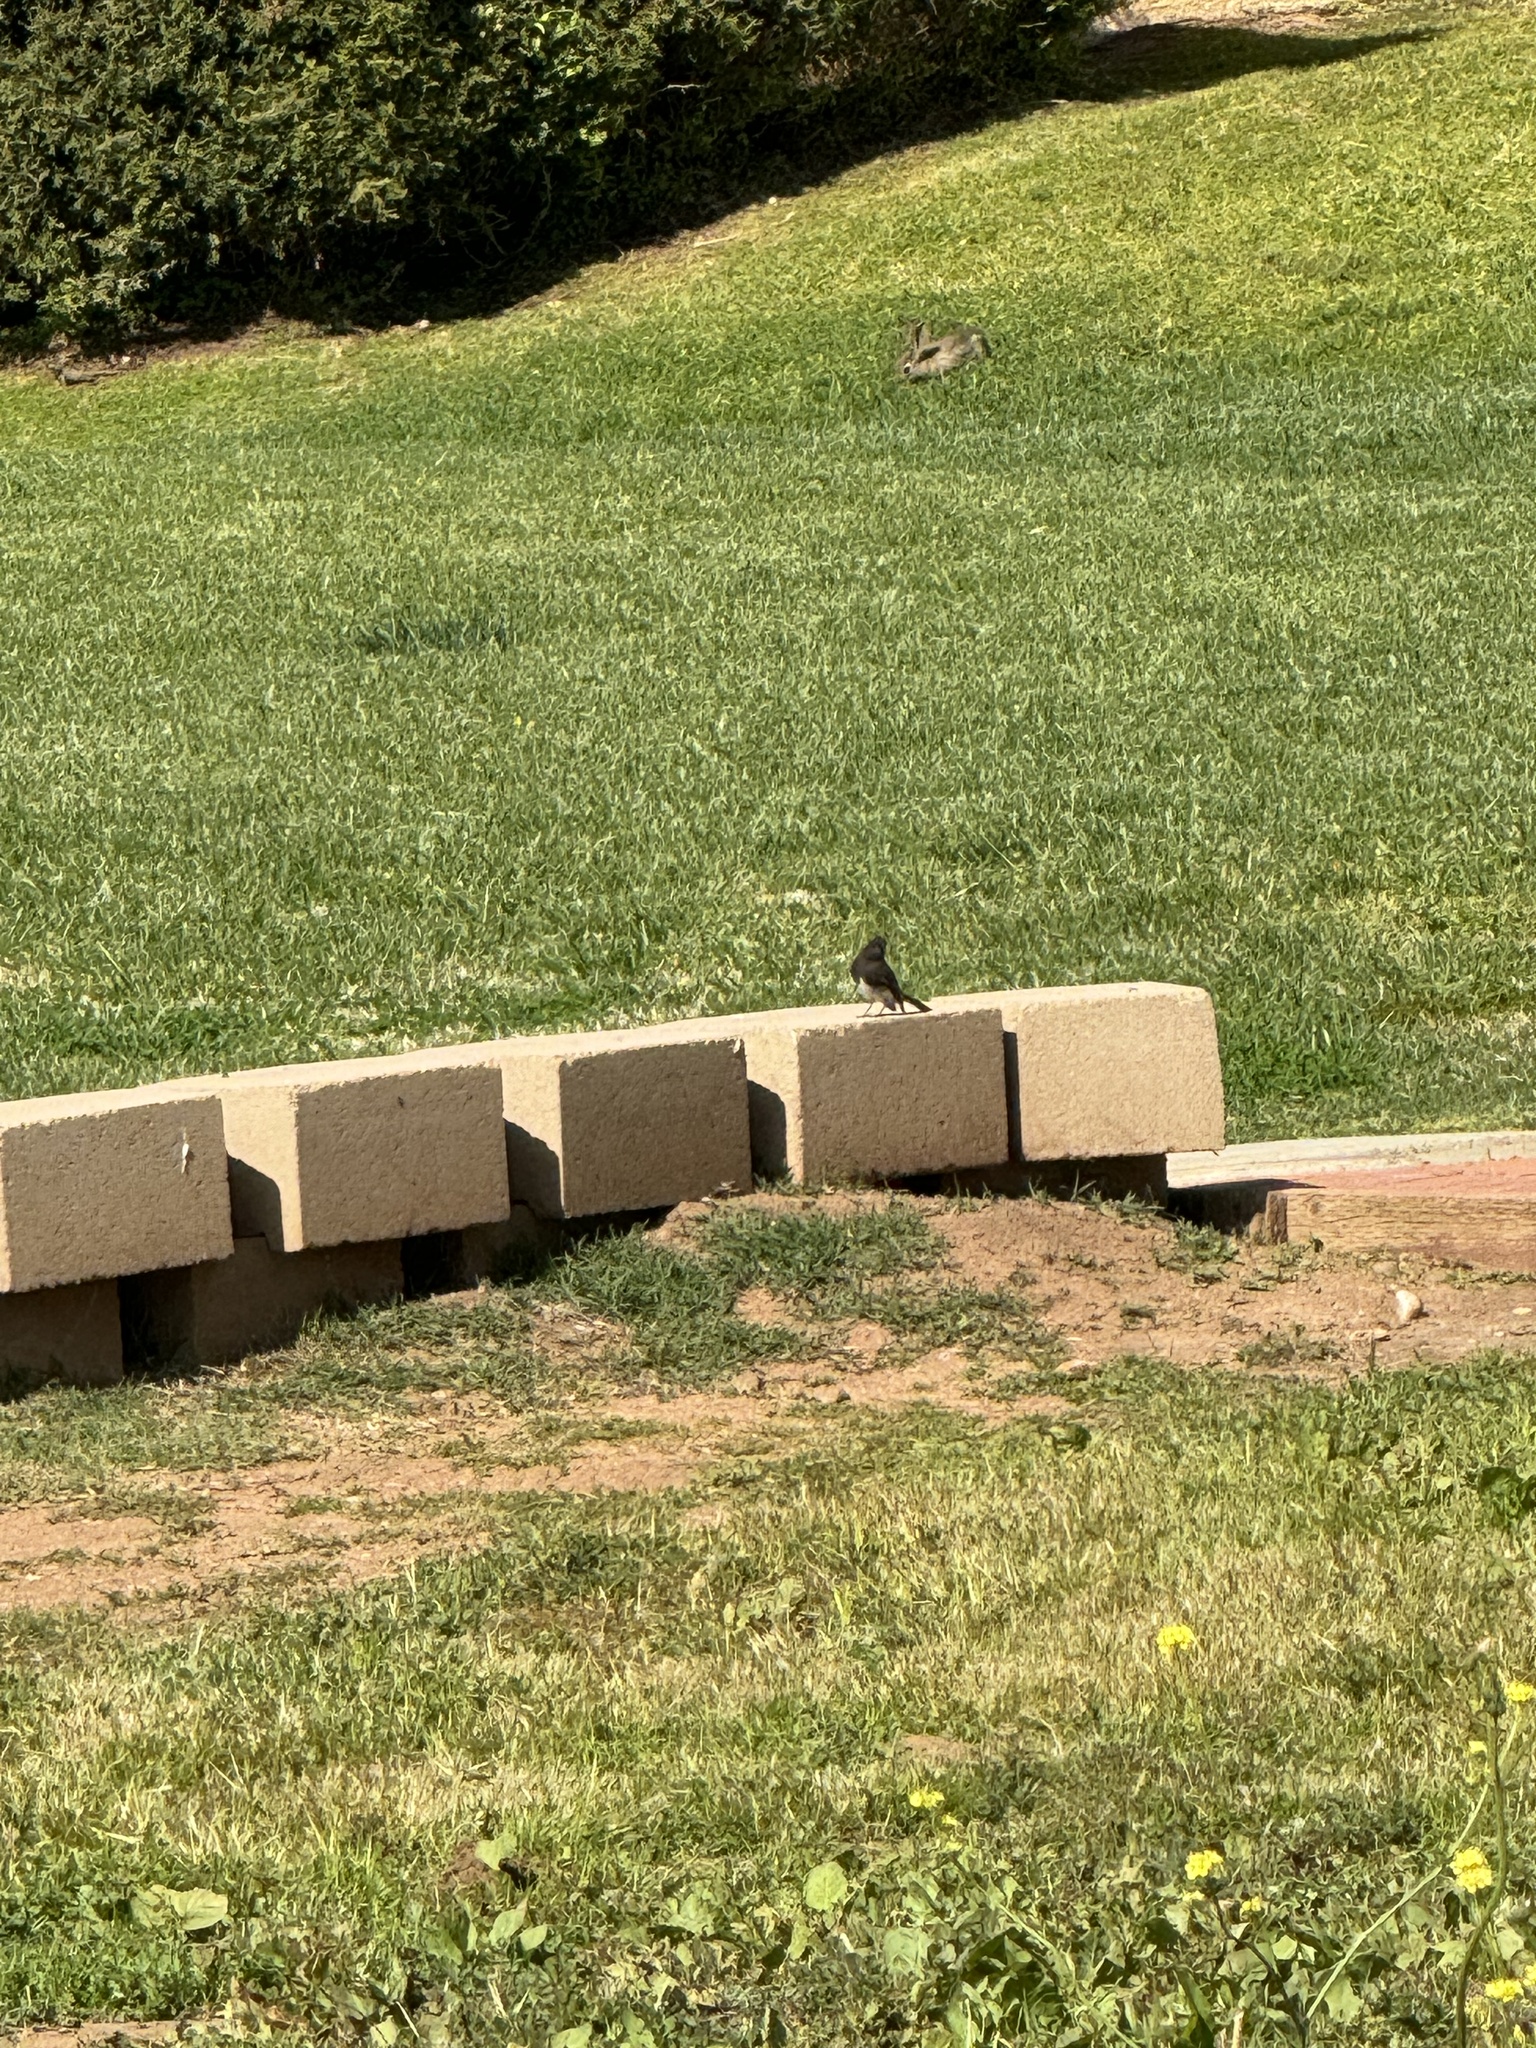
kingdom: Animalia
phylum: Chordata
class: Aves
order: Passeriformes
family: Tyrannidae
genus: Sayornis
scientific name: Sayornis nigricans
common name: Black phoebe
